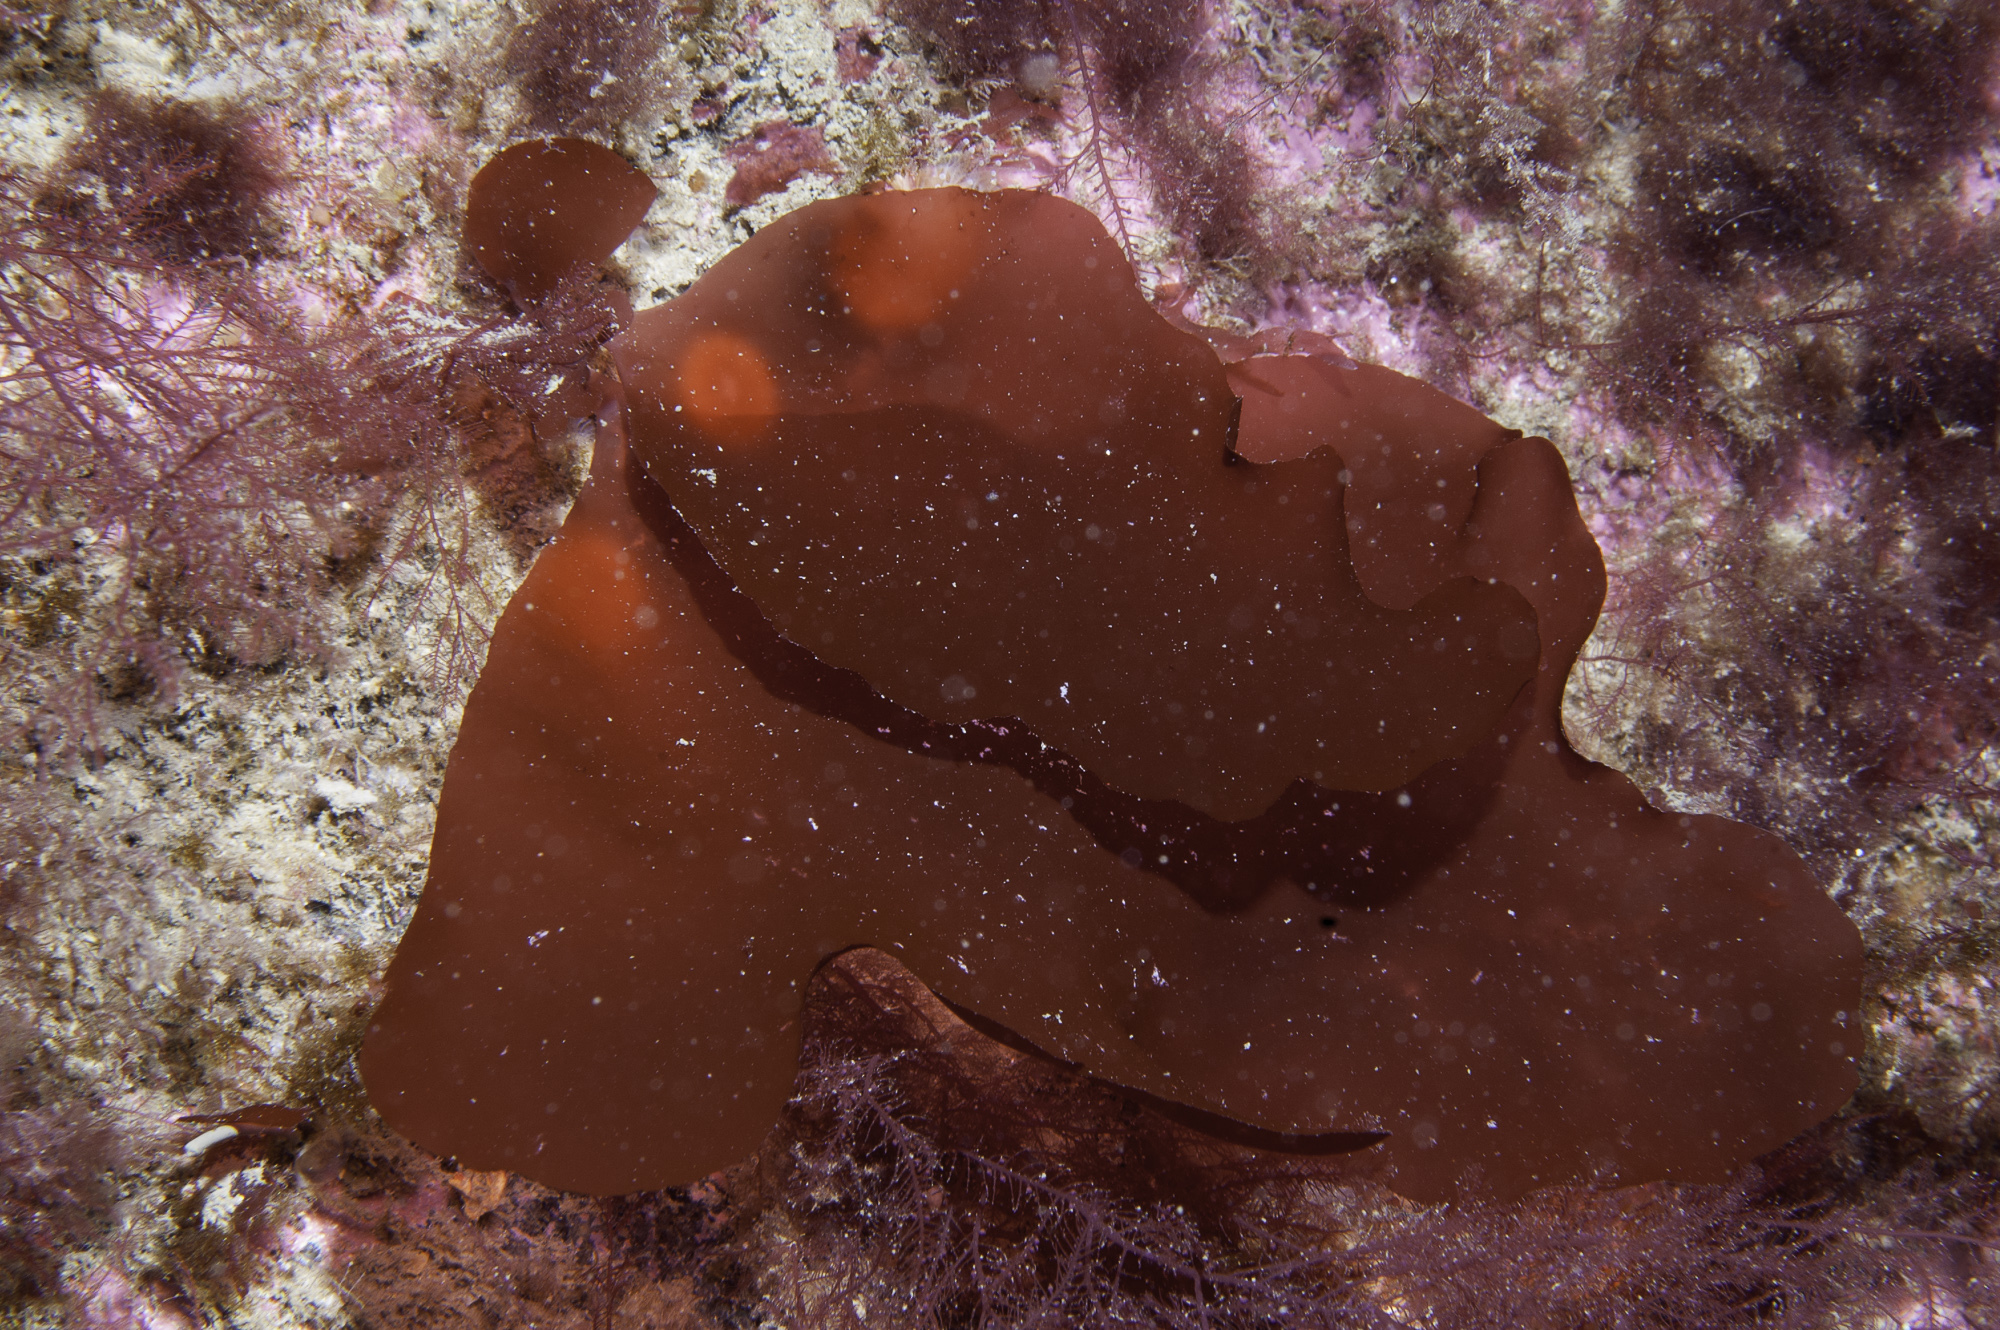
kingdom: Plantae
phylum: Rhodophyta
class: Florideophyceae
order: Gigartinales
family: Kallymeniaceae
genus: Kallymenia
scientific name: Kallymenia reniformis
